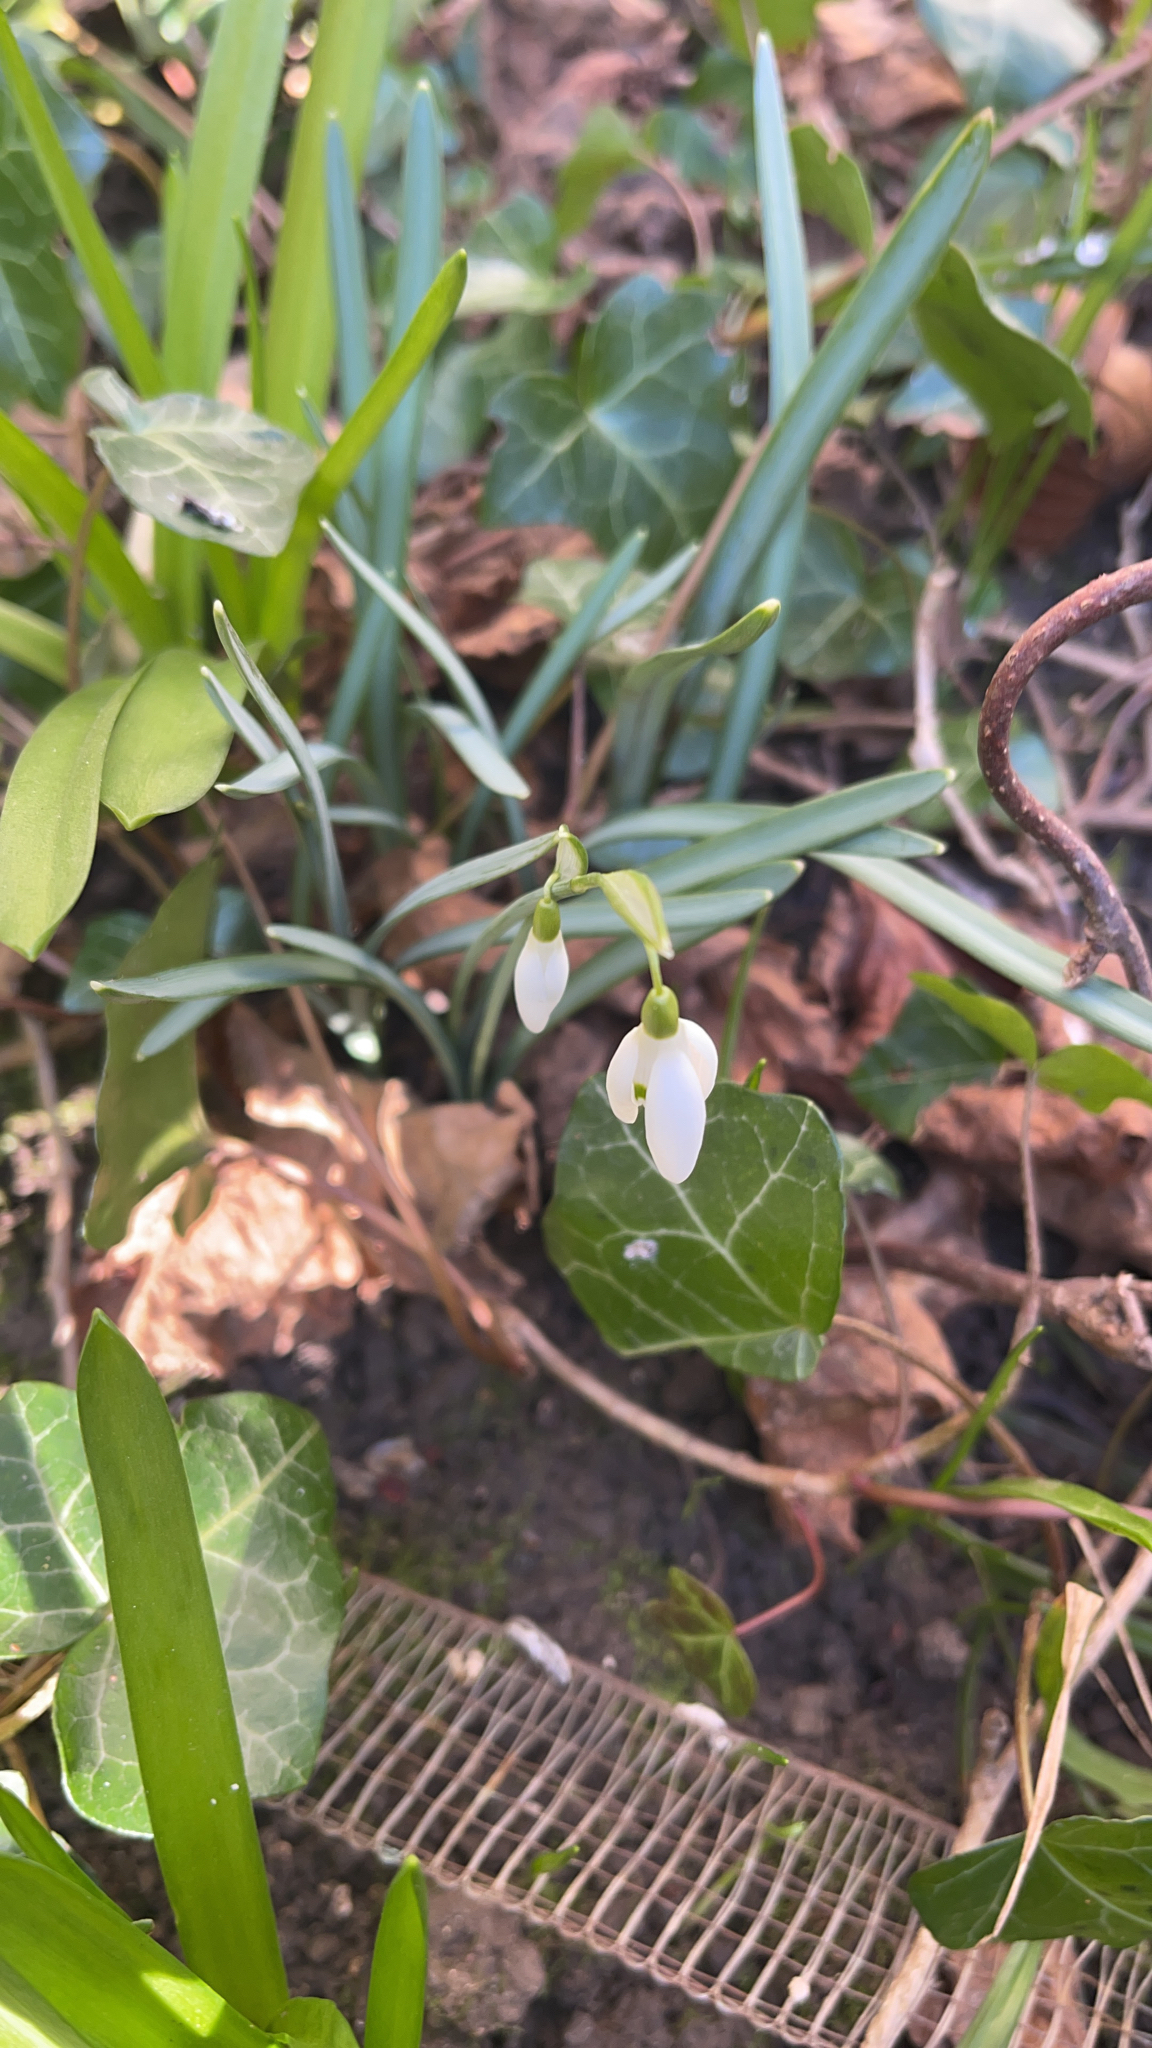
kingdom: Plantae
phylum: Tracheophyta
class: Liliopsida
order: Asparagales
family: Amaryllidaceae
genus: Galanthus
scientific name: Galanthus nivalis
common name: Snowdrop
